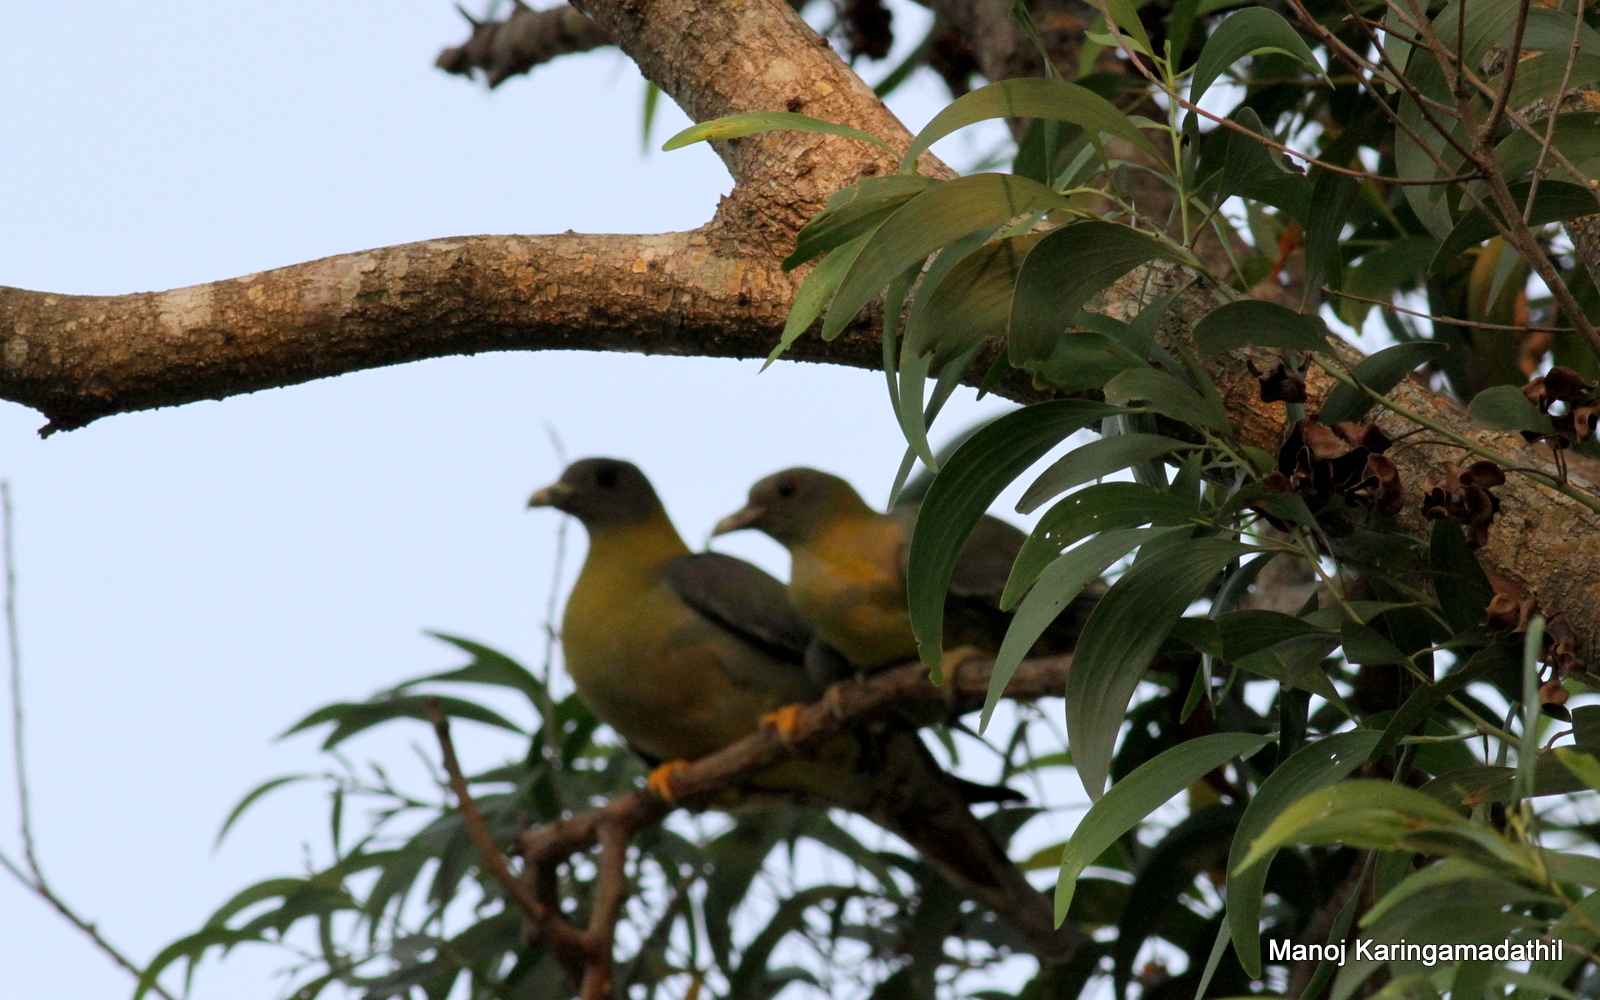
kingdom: Animalia
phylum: Chordata
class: Aves
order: Columbiformes
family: Columbidae
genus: Treron
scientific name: Treron phoenicopterus
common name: Yellow-footed green pigeon
